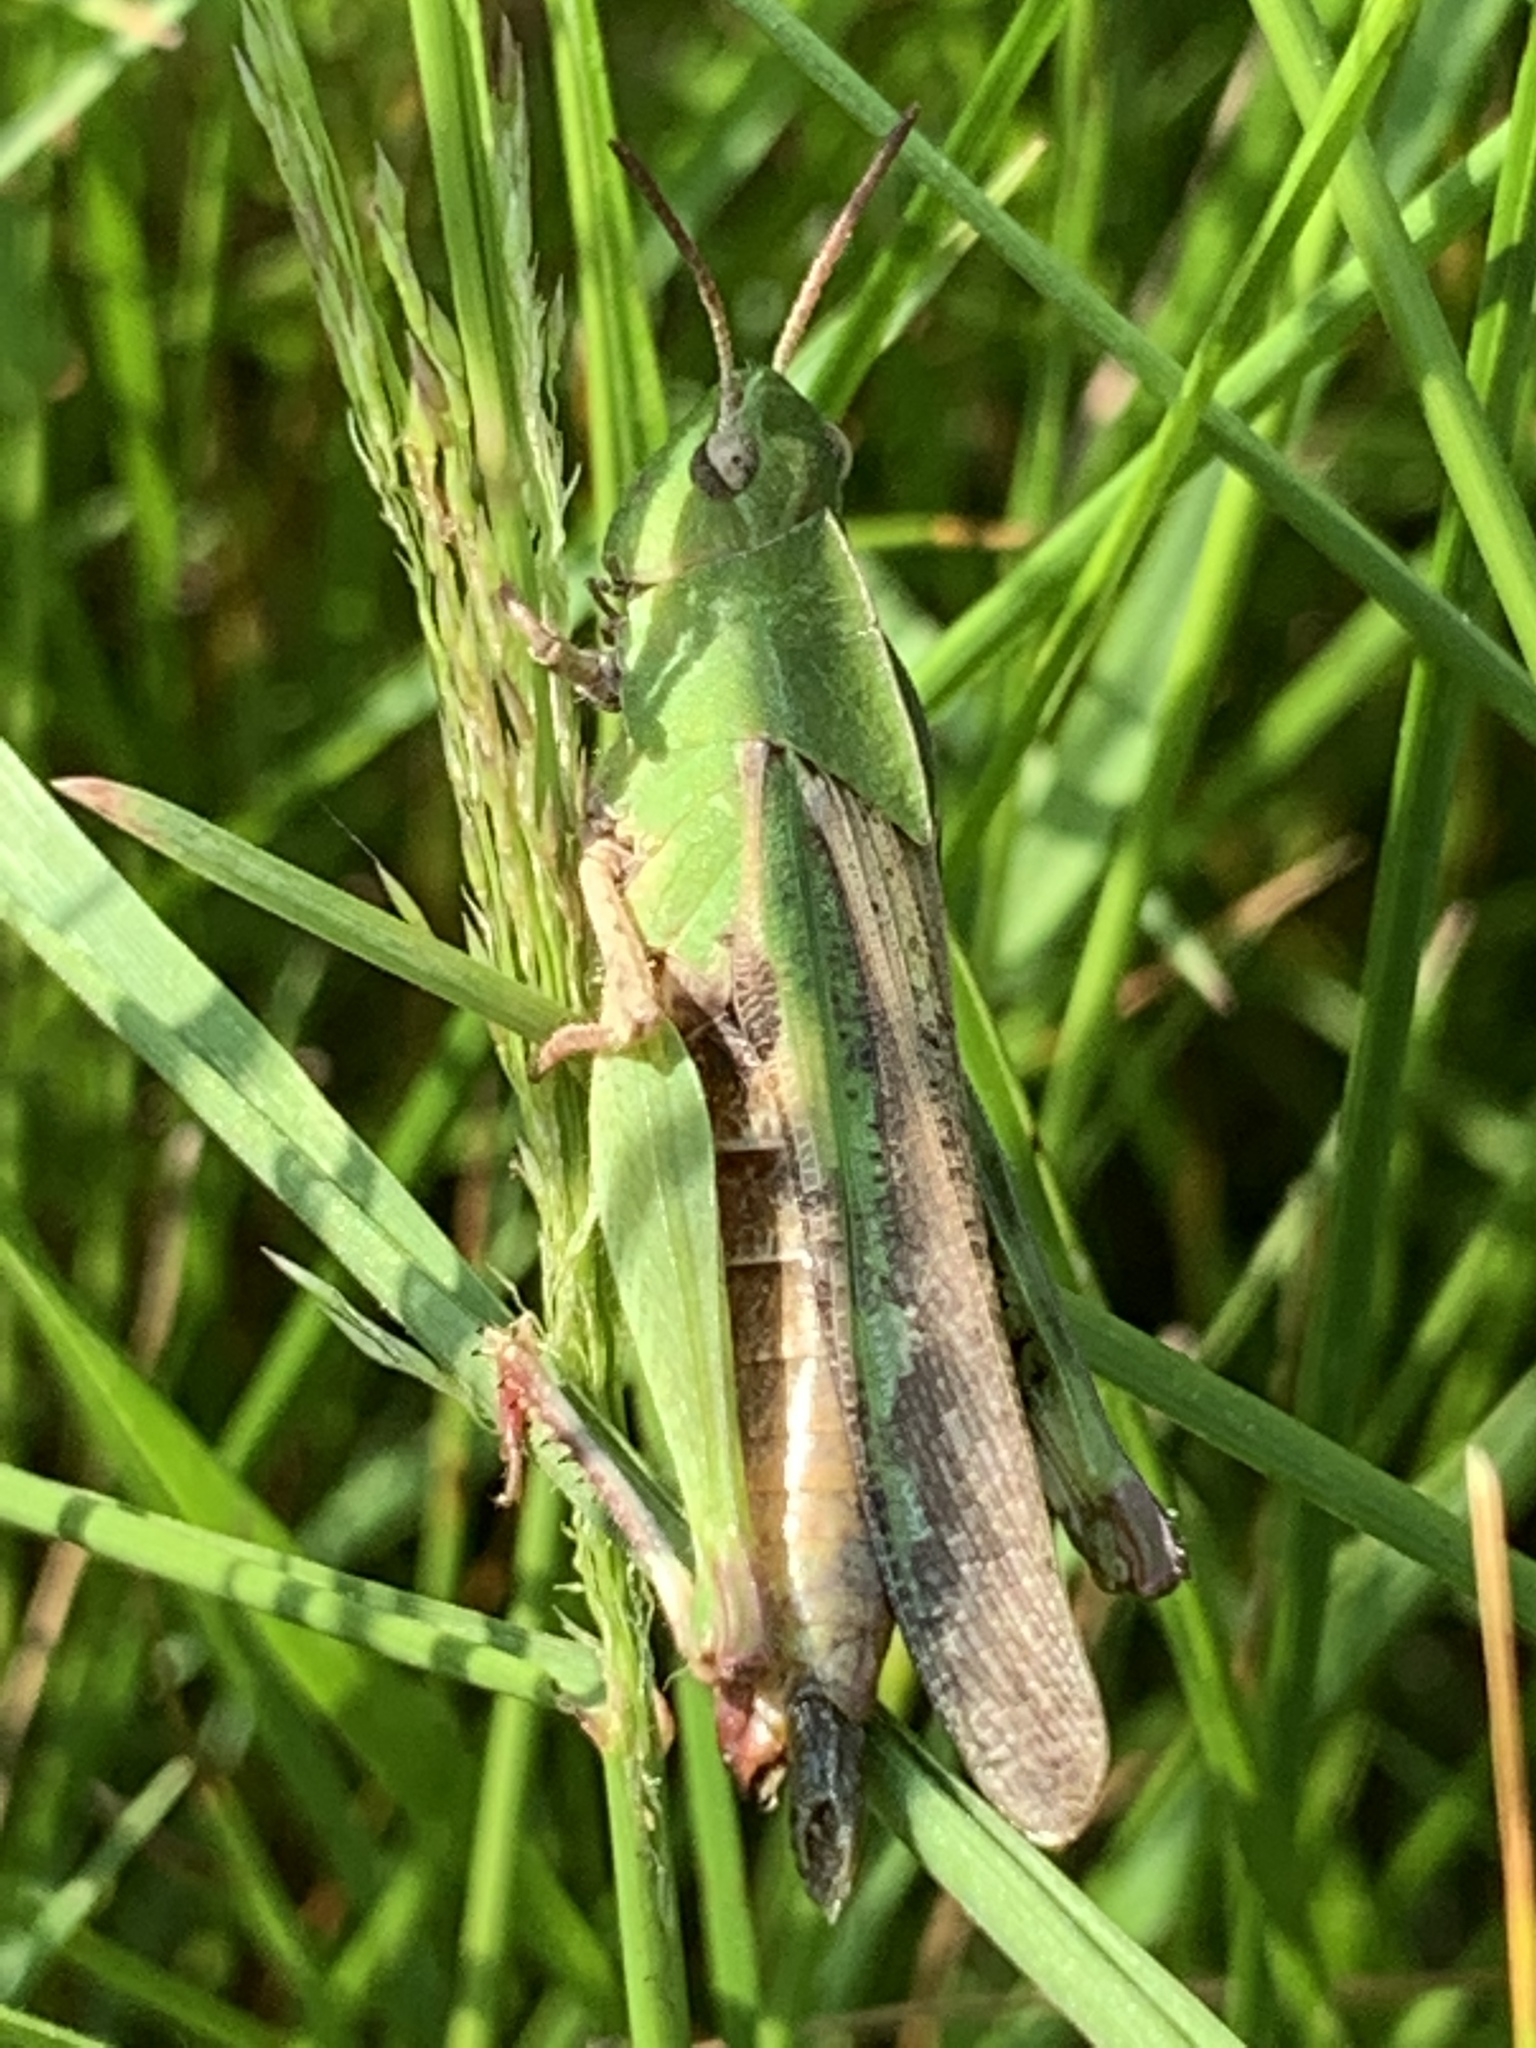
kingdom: Animalia
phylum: Arthropoda
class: Insecta
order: Orthoptera
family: Acrididae
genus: Chortophaga
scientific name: Chortophaga viridifasciata
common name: Green-striped grasshopper
